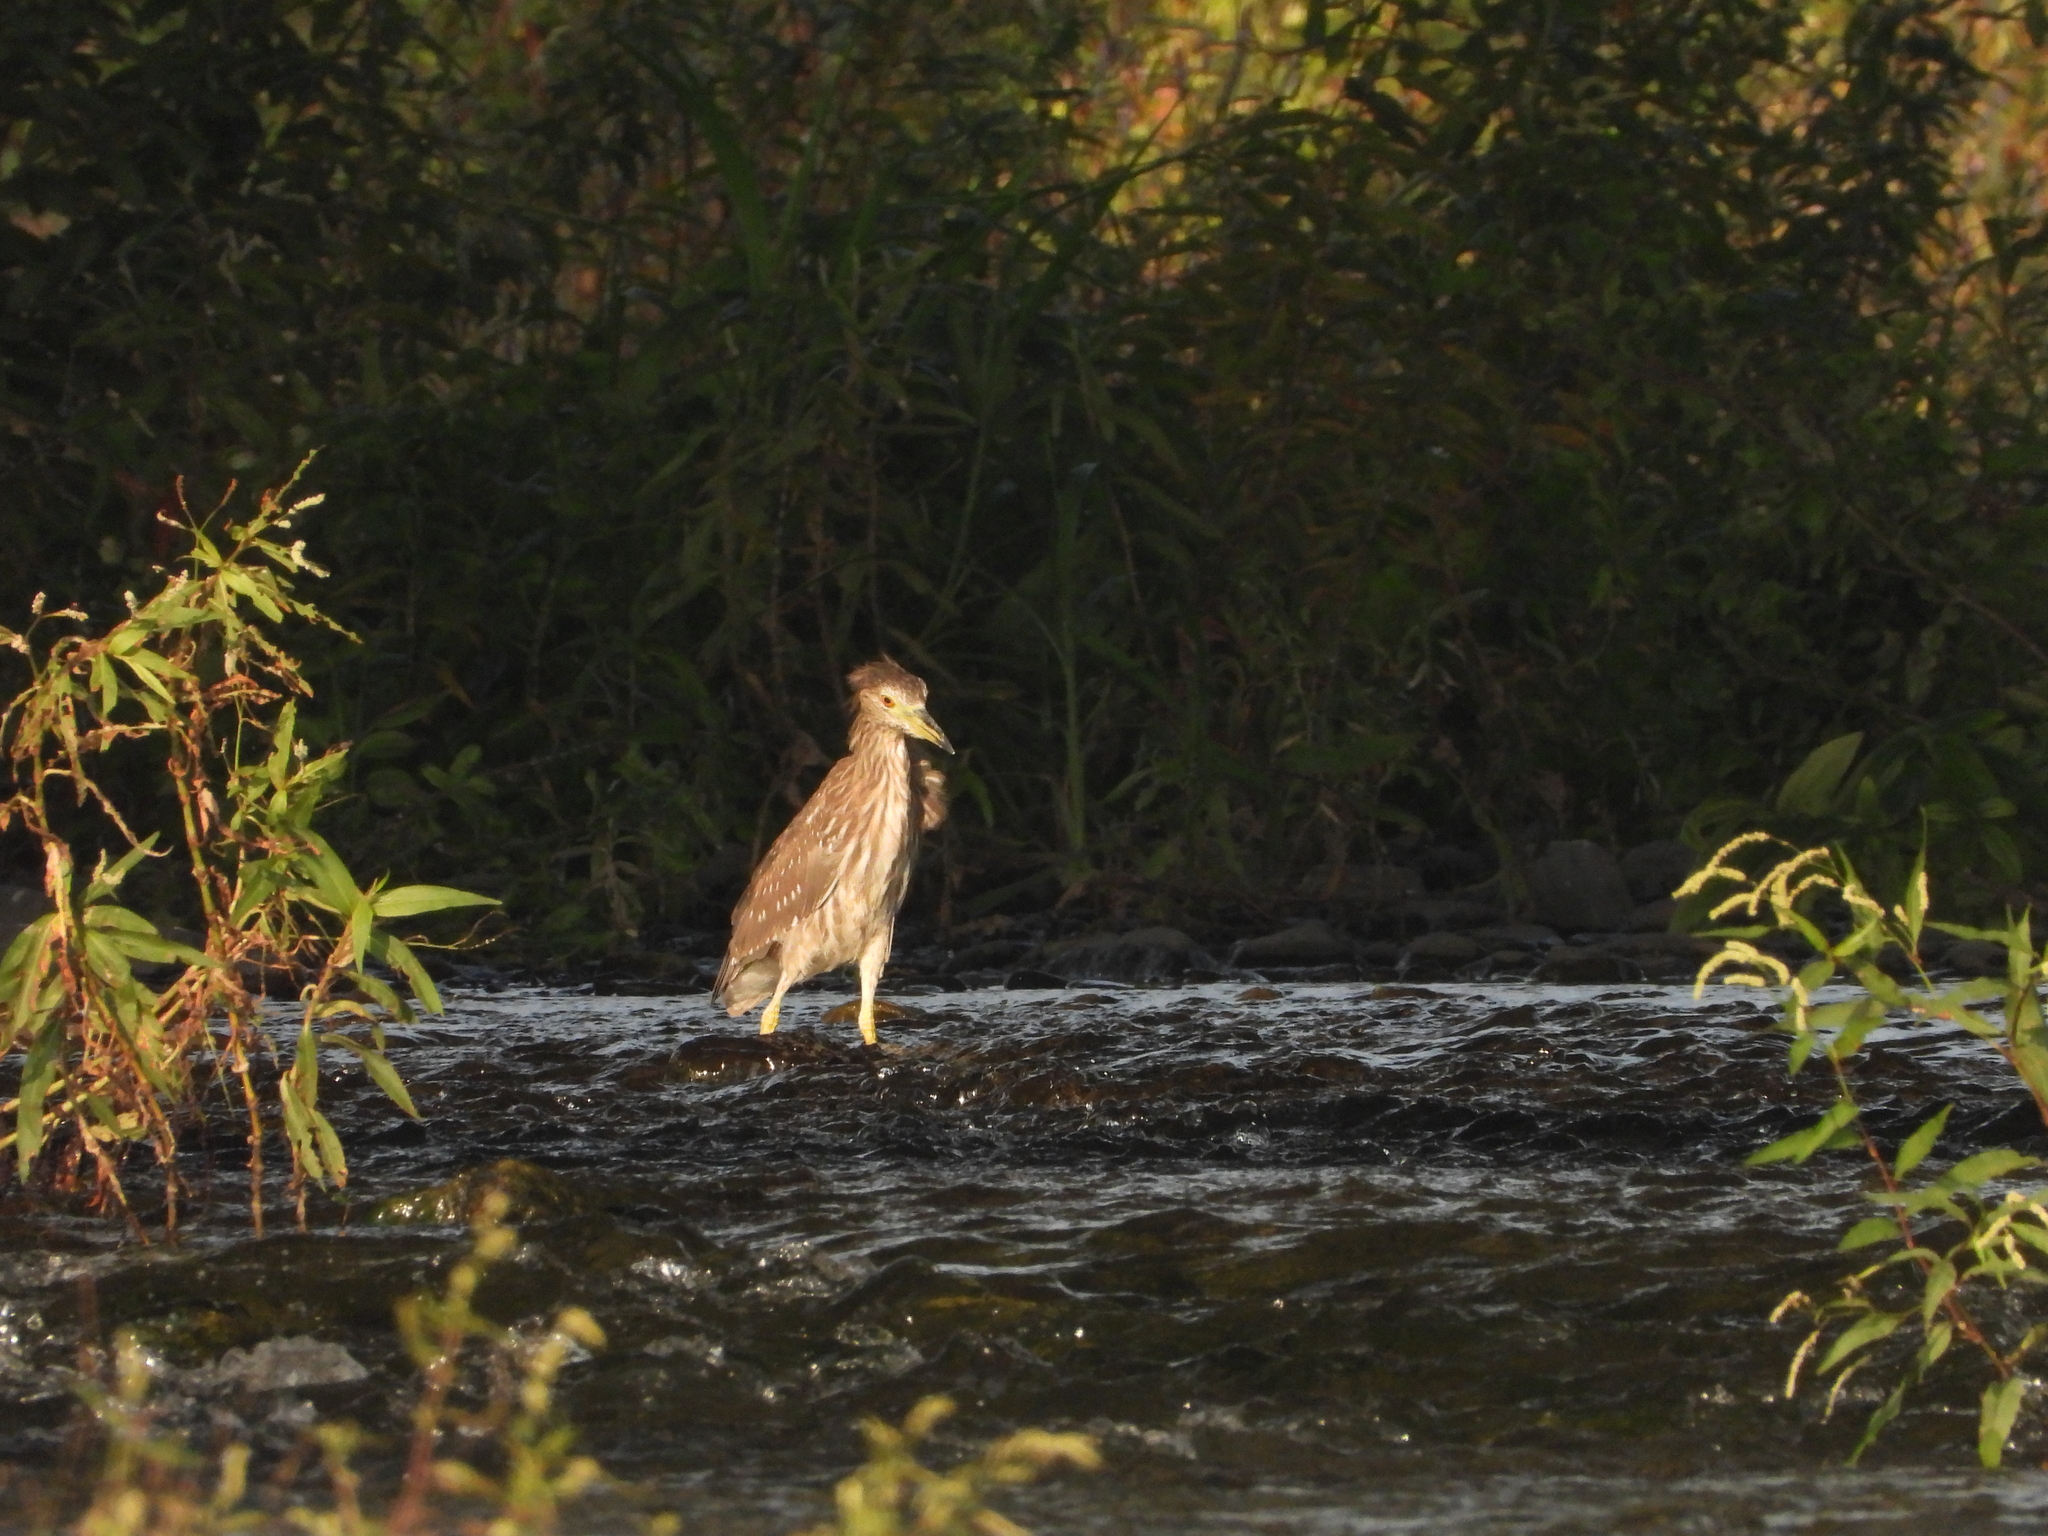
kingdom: Animalia
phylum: Chordata
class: Aves
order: Pelecaniformes
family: Ardeidae
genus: Nycticorax
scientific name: Nycticorax nycticorax
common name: Black-crowned night heron
